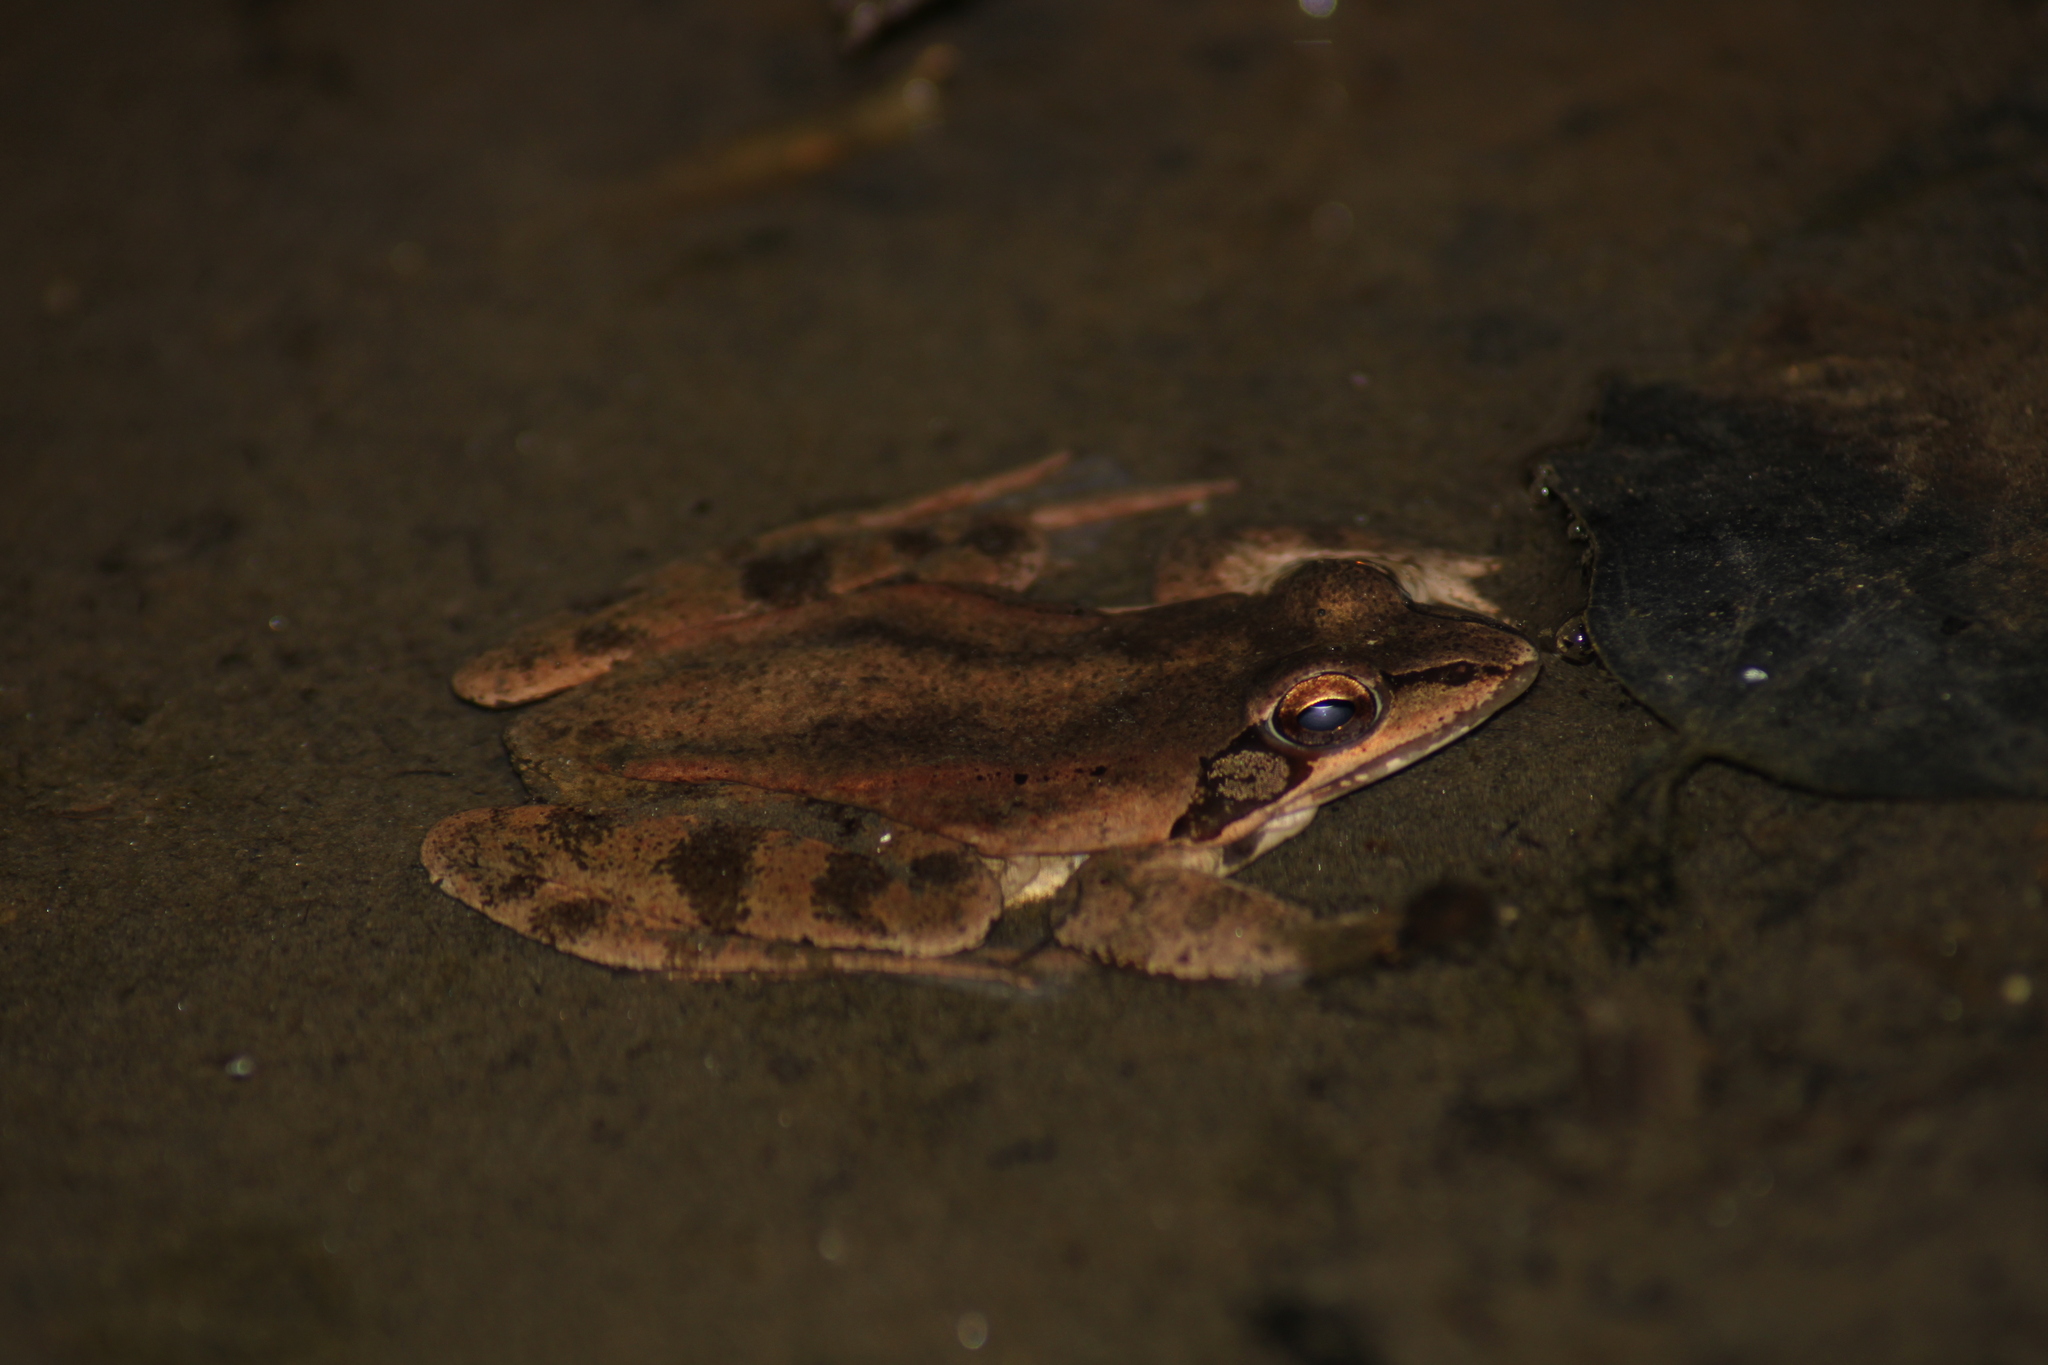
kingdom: Animalia
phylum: Chordata
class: Amphibia
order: Anura
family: Ranidae
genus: Rana
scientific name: Rana dalmatina
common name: Agile frog
